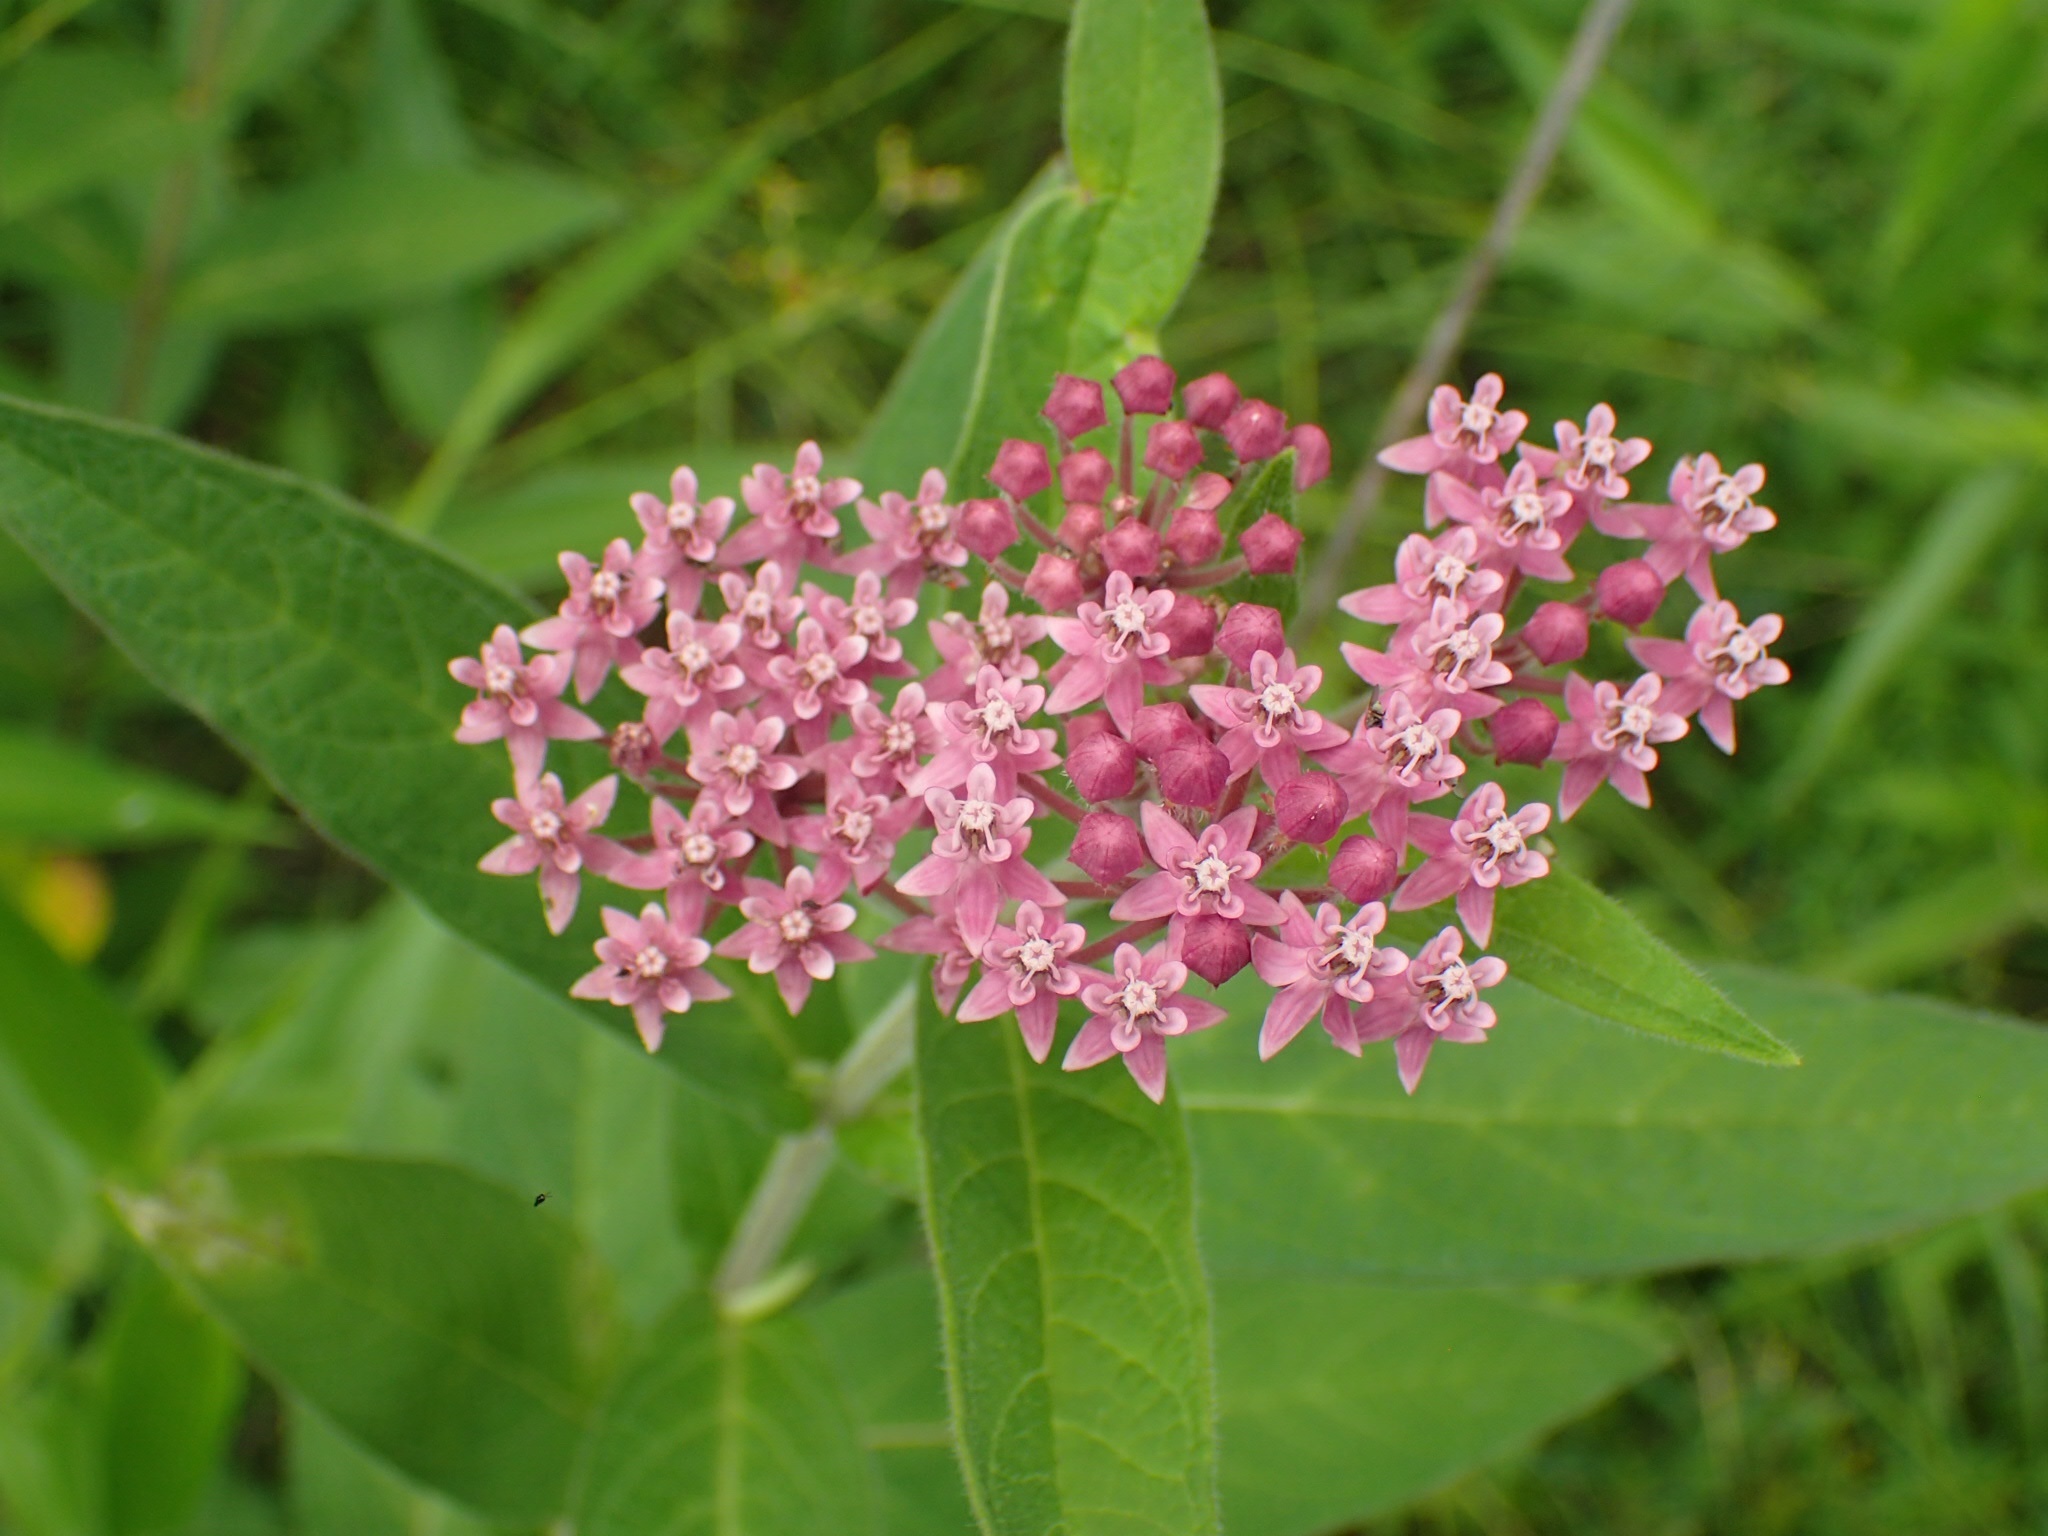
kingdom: Plantae
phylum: Tracheophyta
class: Magnoliopsida
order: Gentianales
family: Apocynaceae
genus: Asclepias
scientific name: Asclepias incarnata
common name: Swamp milkweed
